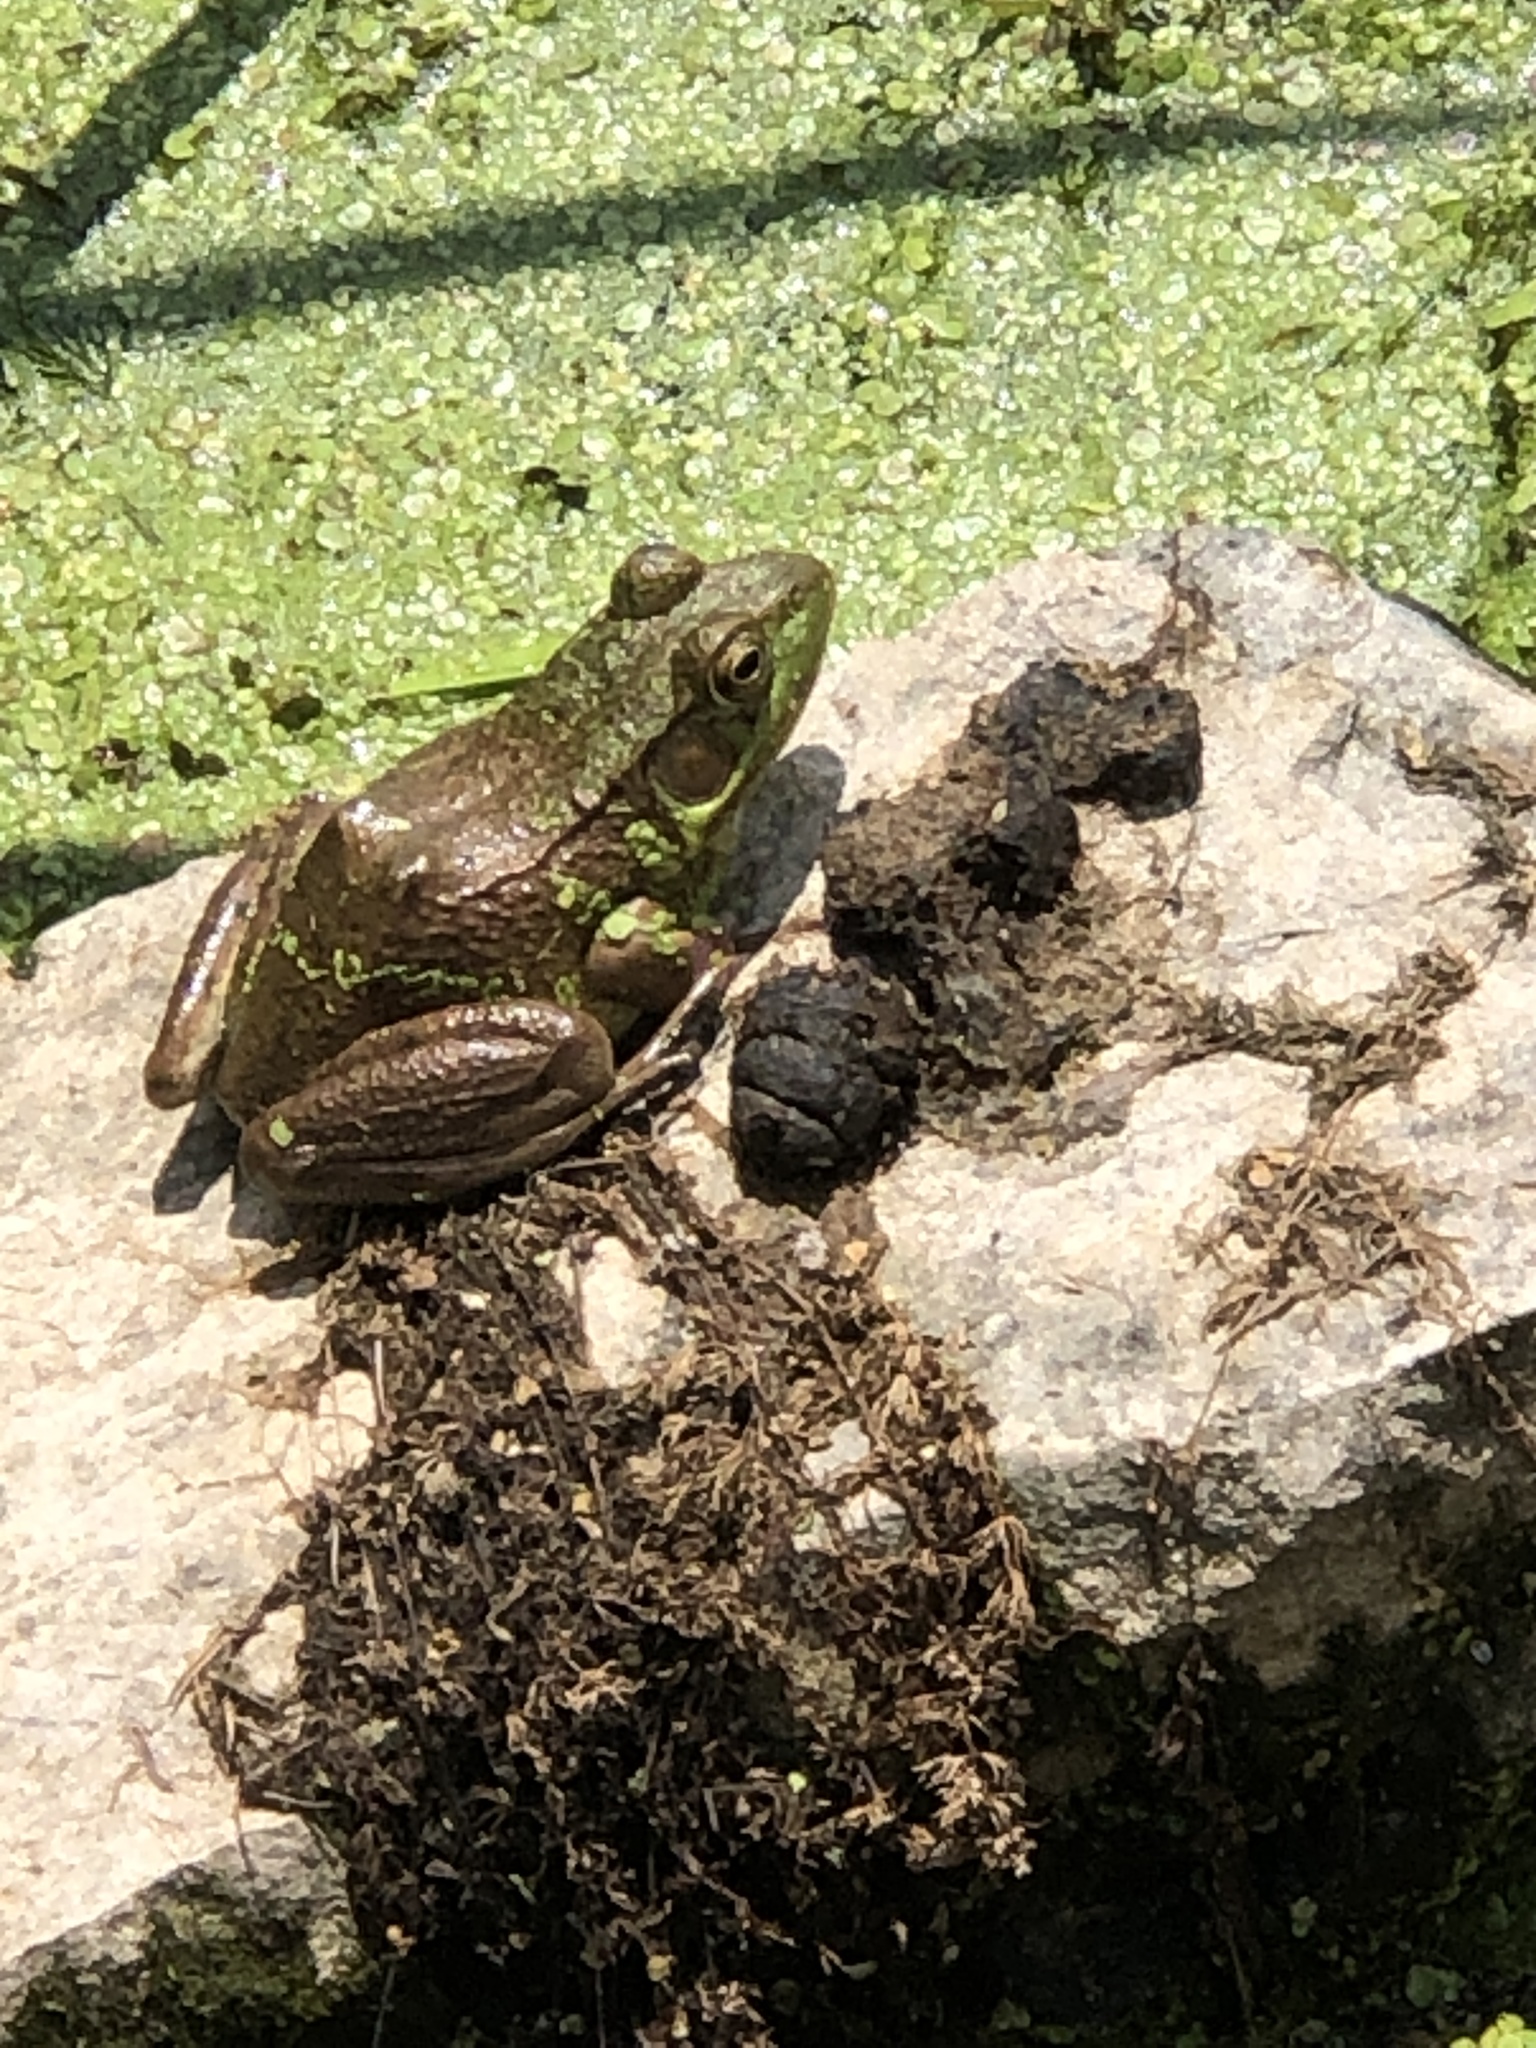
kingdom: Animalia
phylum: Chordata
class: Amphibia
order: Anura
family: Ranidae
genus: Lithobates
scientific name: Lithobates clamitans
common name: Green frog
